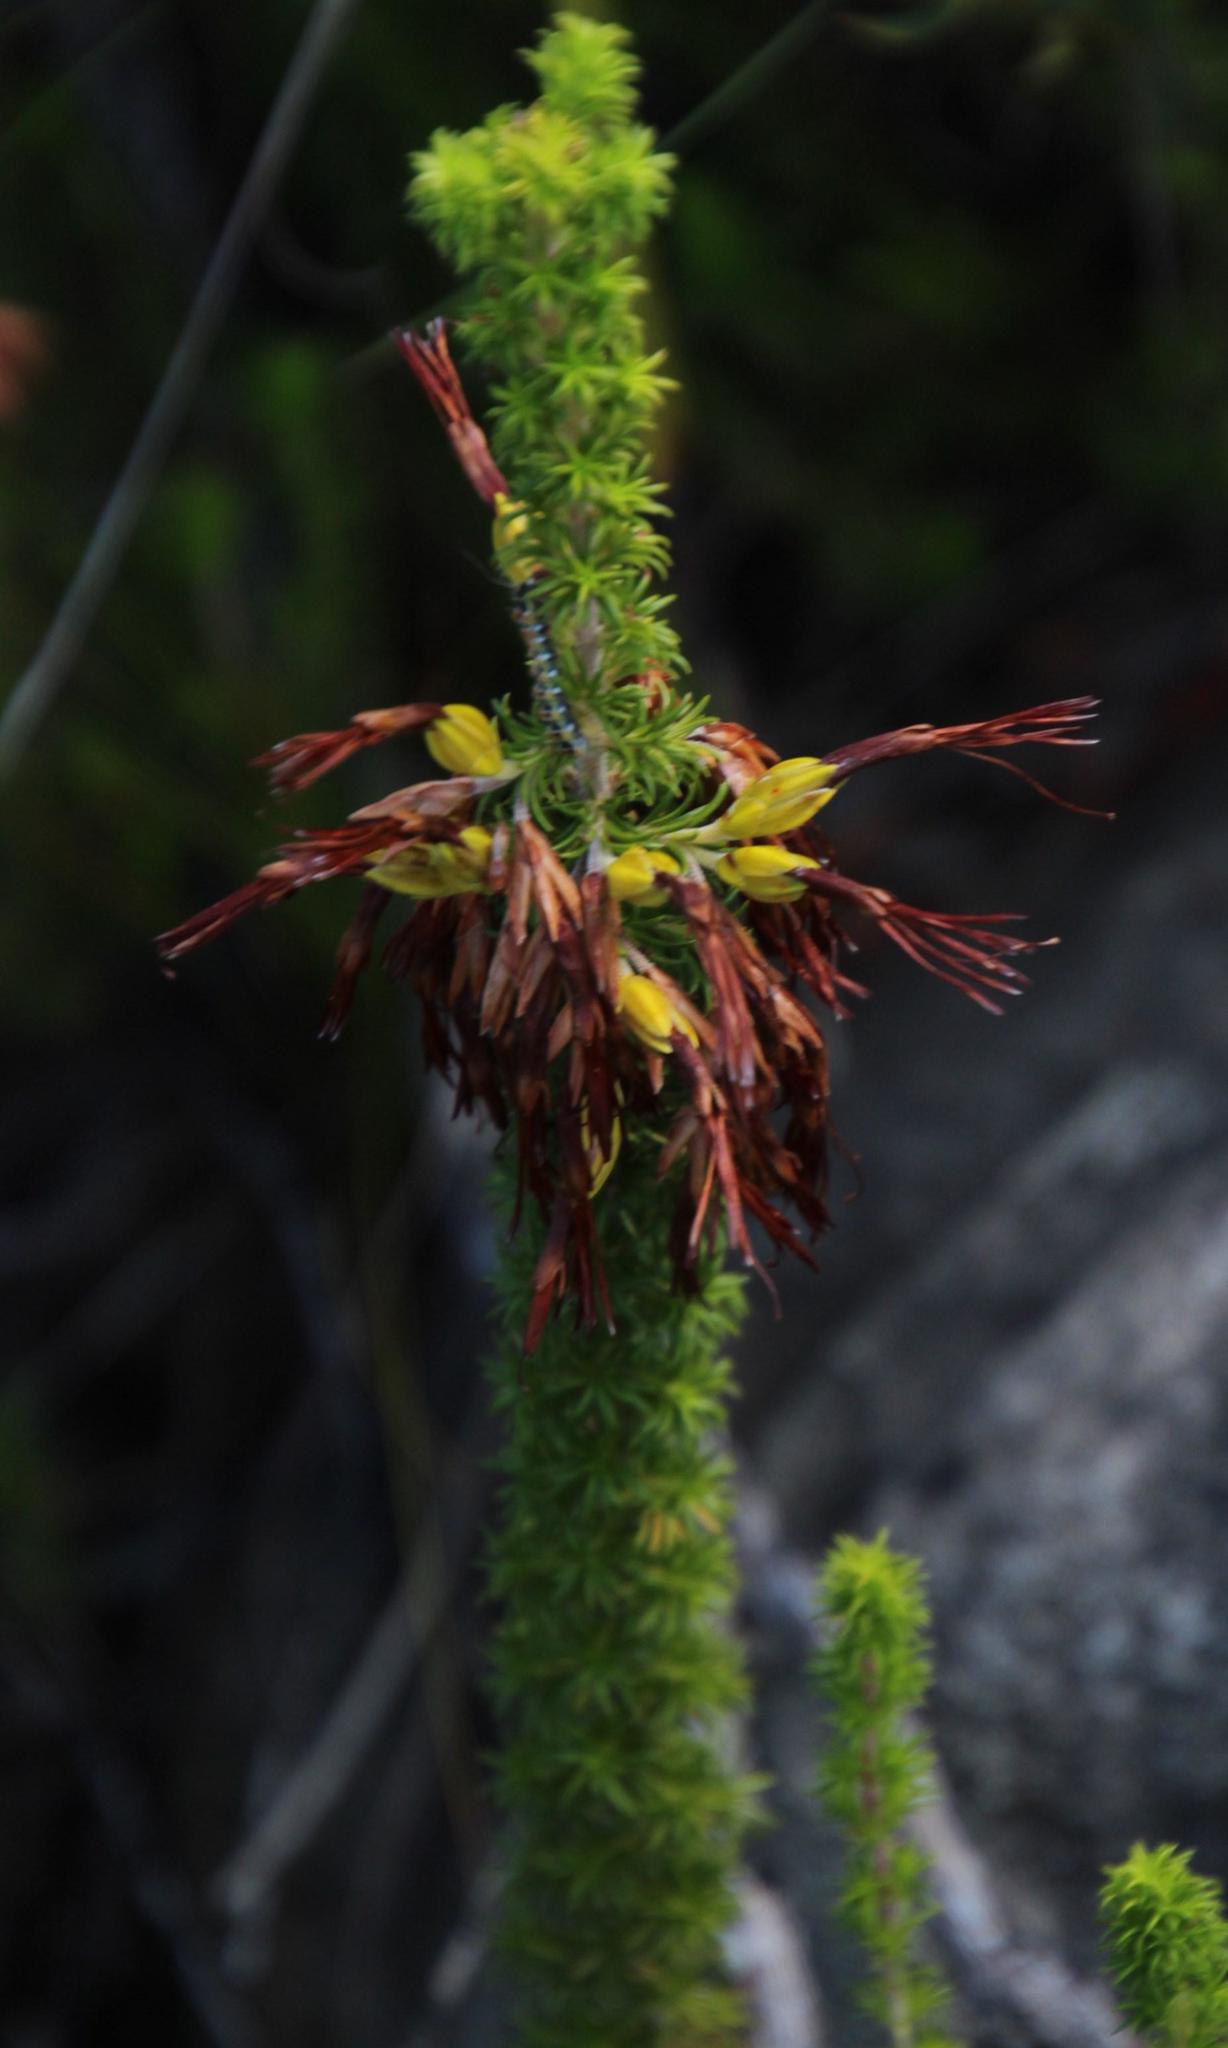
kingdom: Plantae
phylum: Tracheophyta
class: Magnoliopsida
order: Ericales
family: Ericaceae
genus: Erica
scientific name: Erica coccinea
